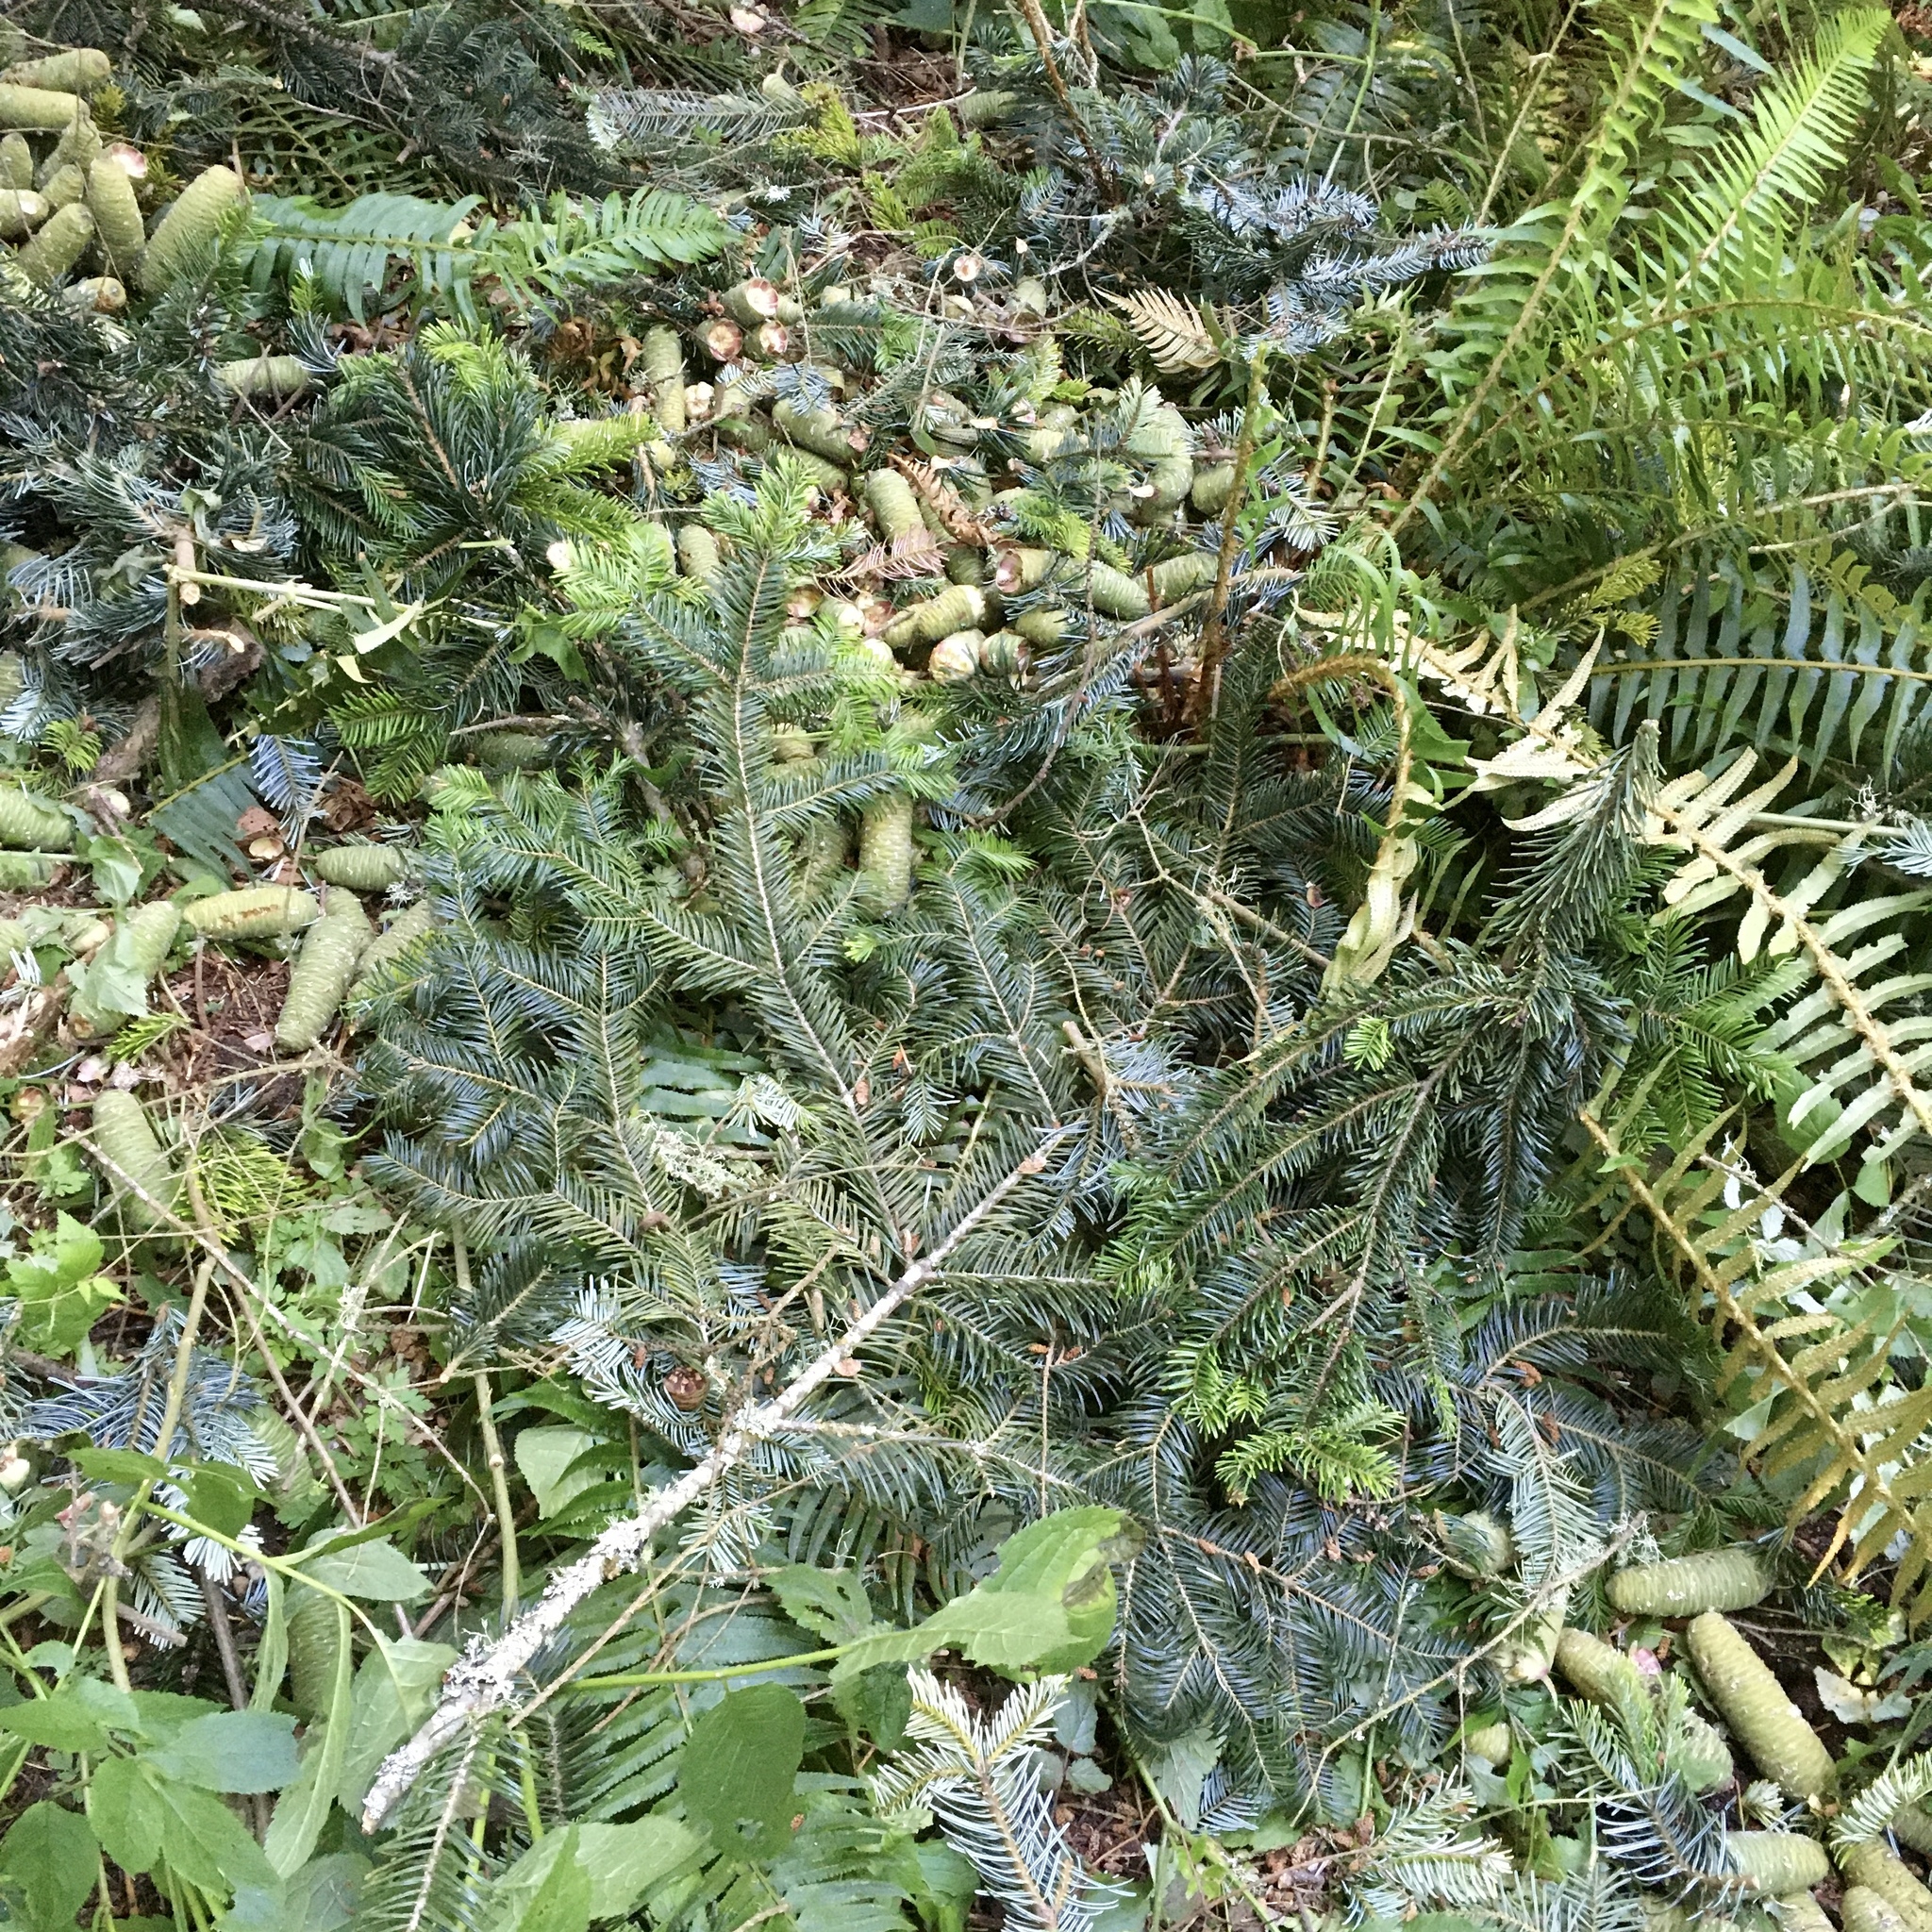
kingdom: Plantae
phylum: Tracheophyta
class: Pinopsida
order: Pinales
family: Pinaceae
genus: Abies
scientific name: Abies grandis
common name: Giant fir
